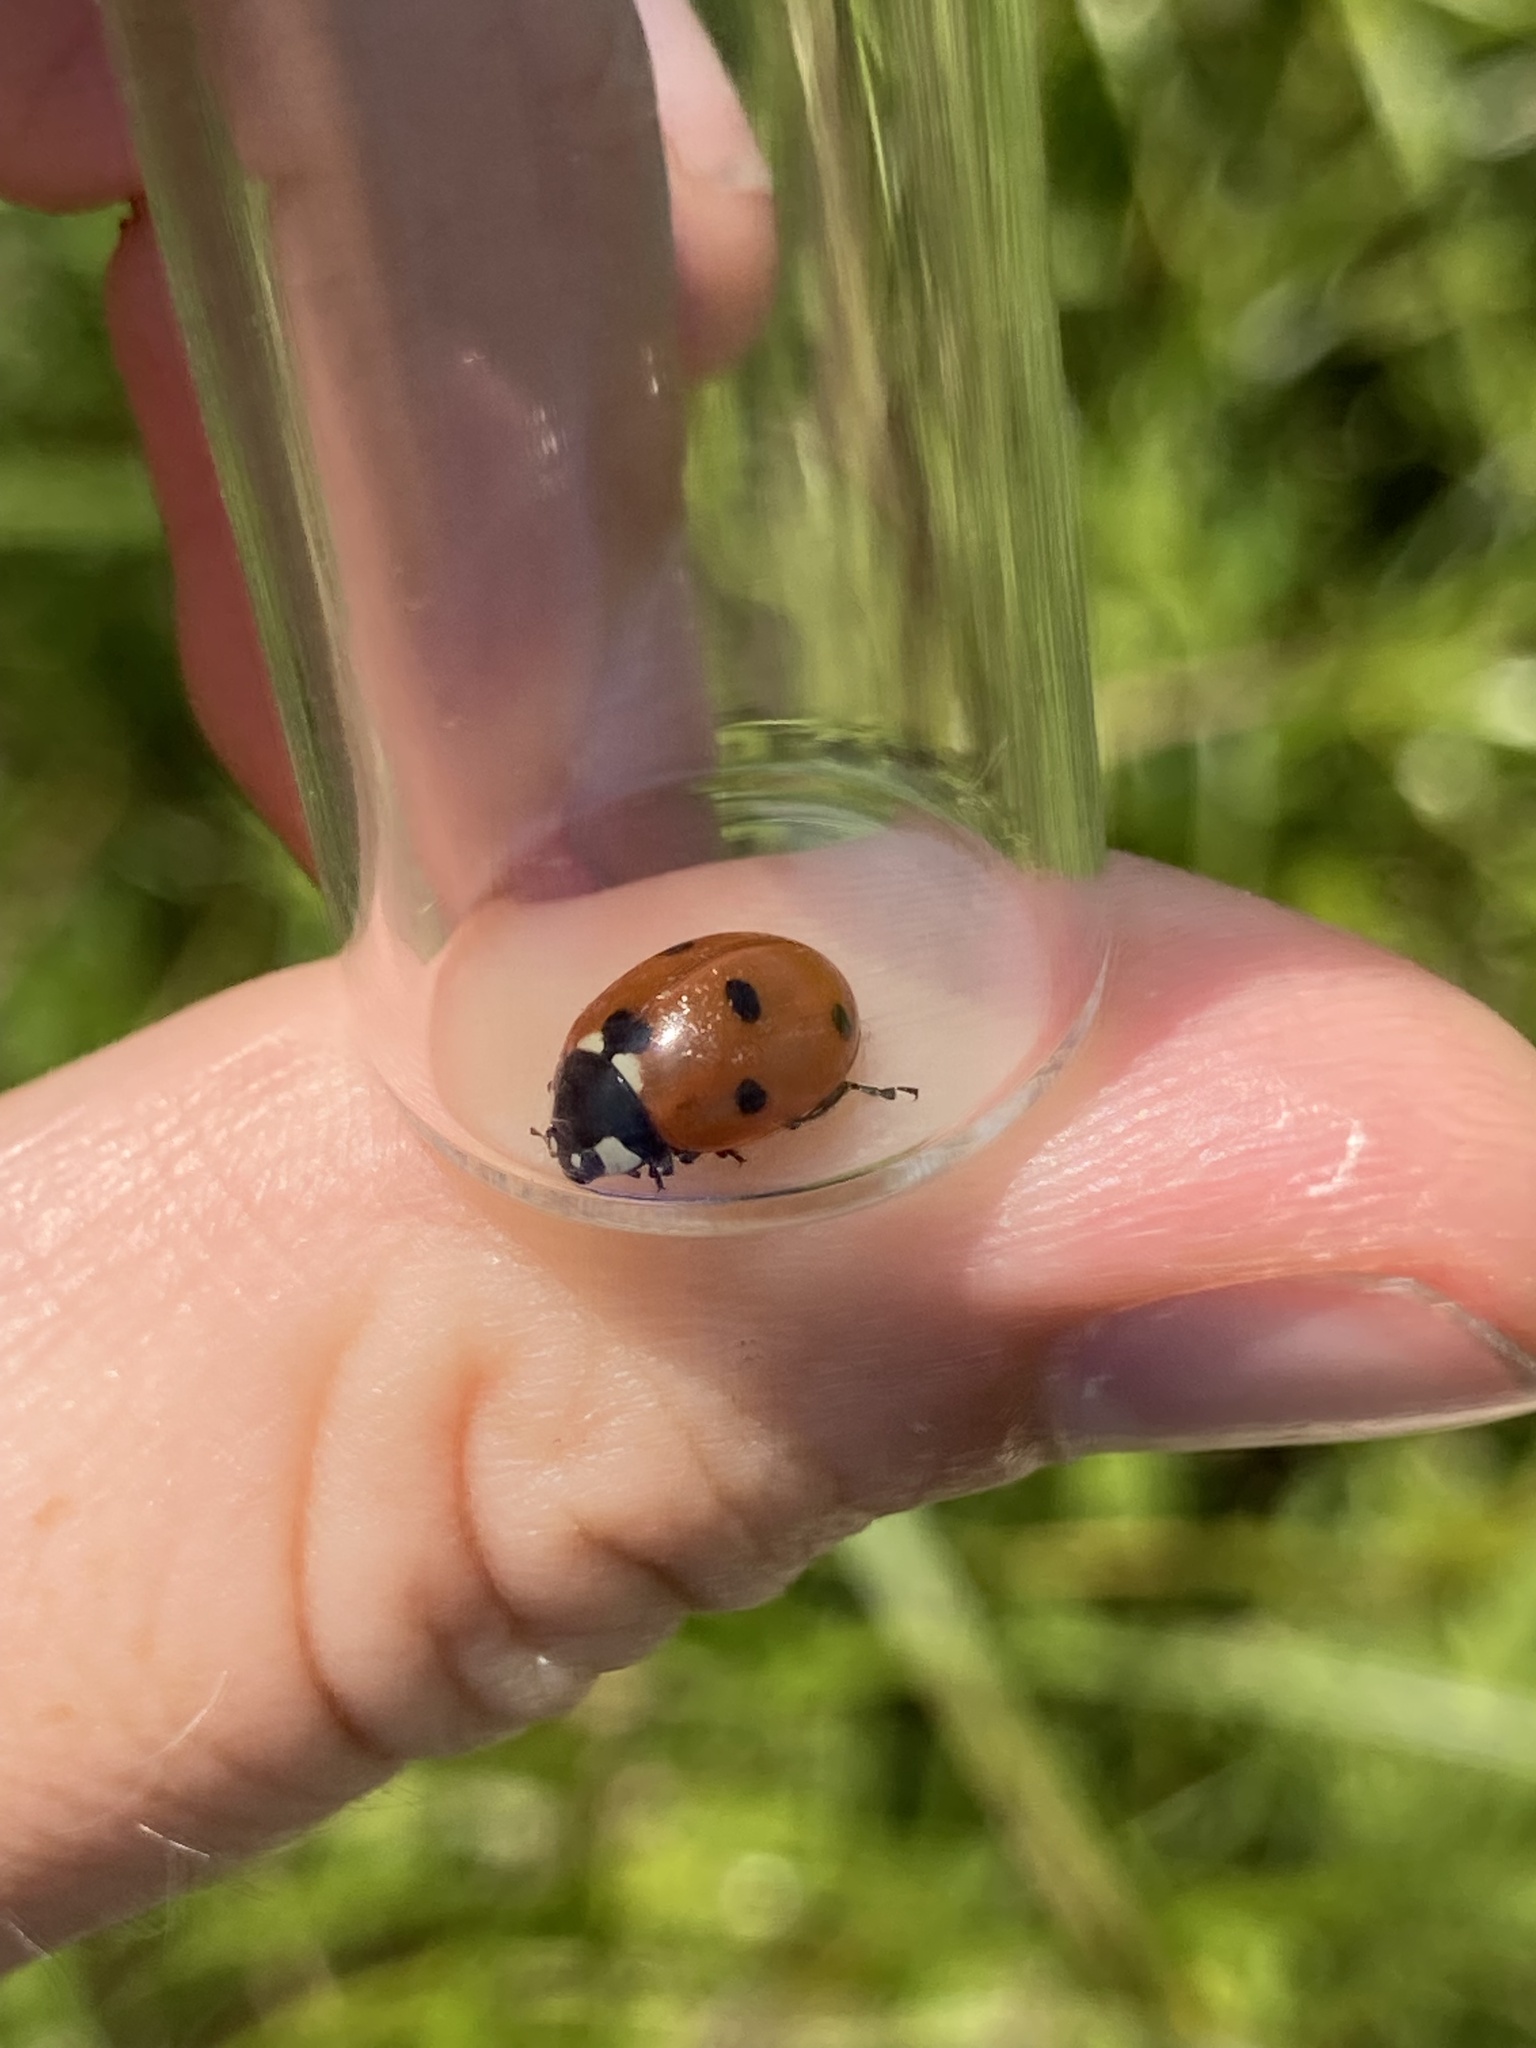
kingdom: Animalia
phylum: Arthropoda
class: Insecta
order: Coleoptera
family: Coccinellidae
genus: Coccinella
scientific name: Coccinella septempunctata
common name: Sevenspotted lady beetle
